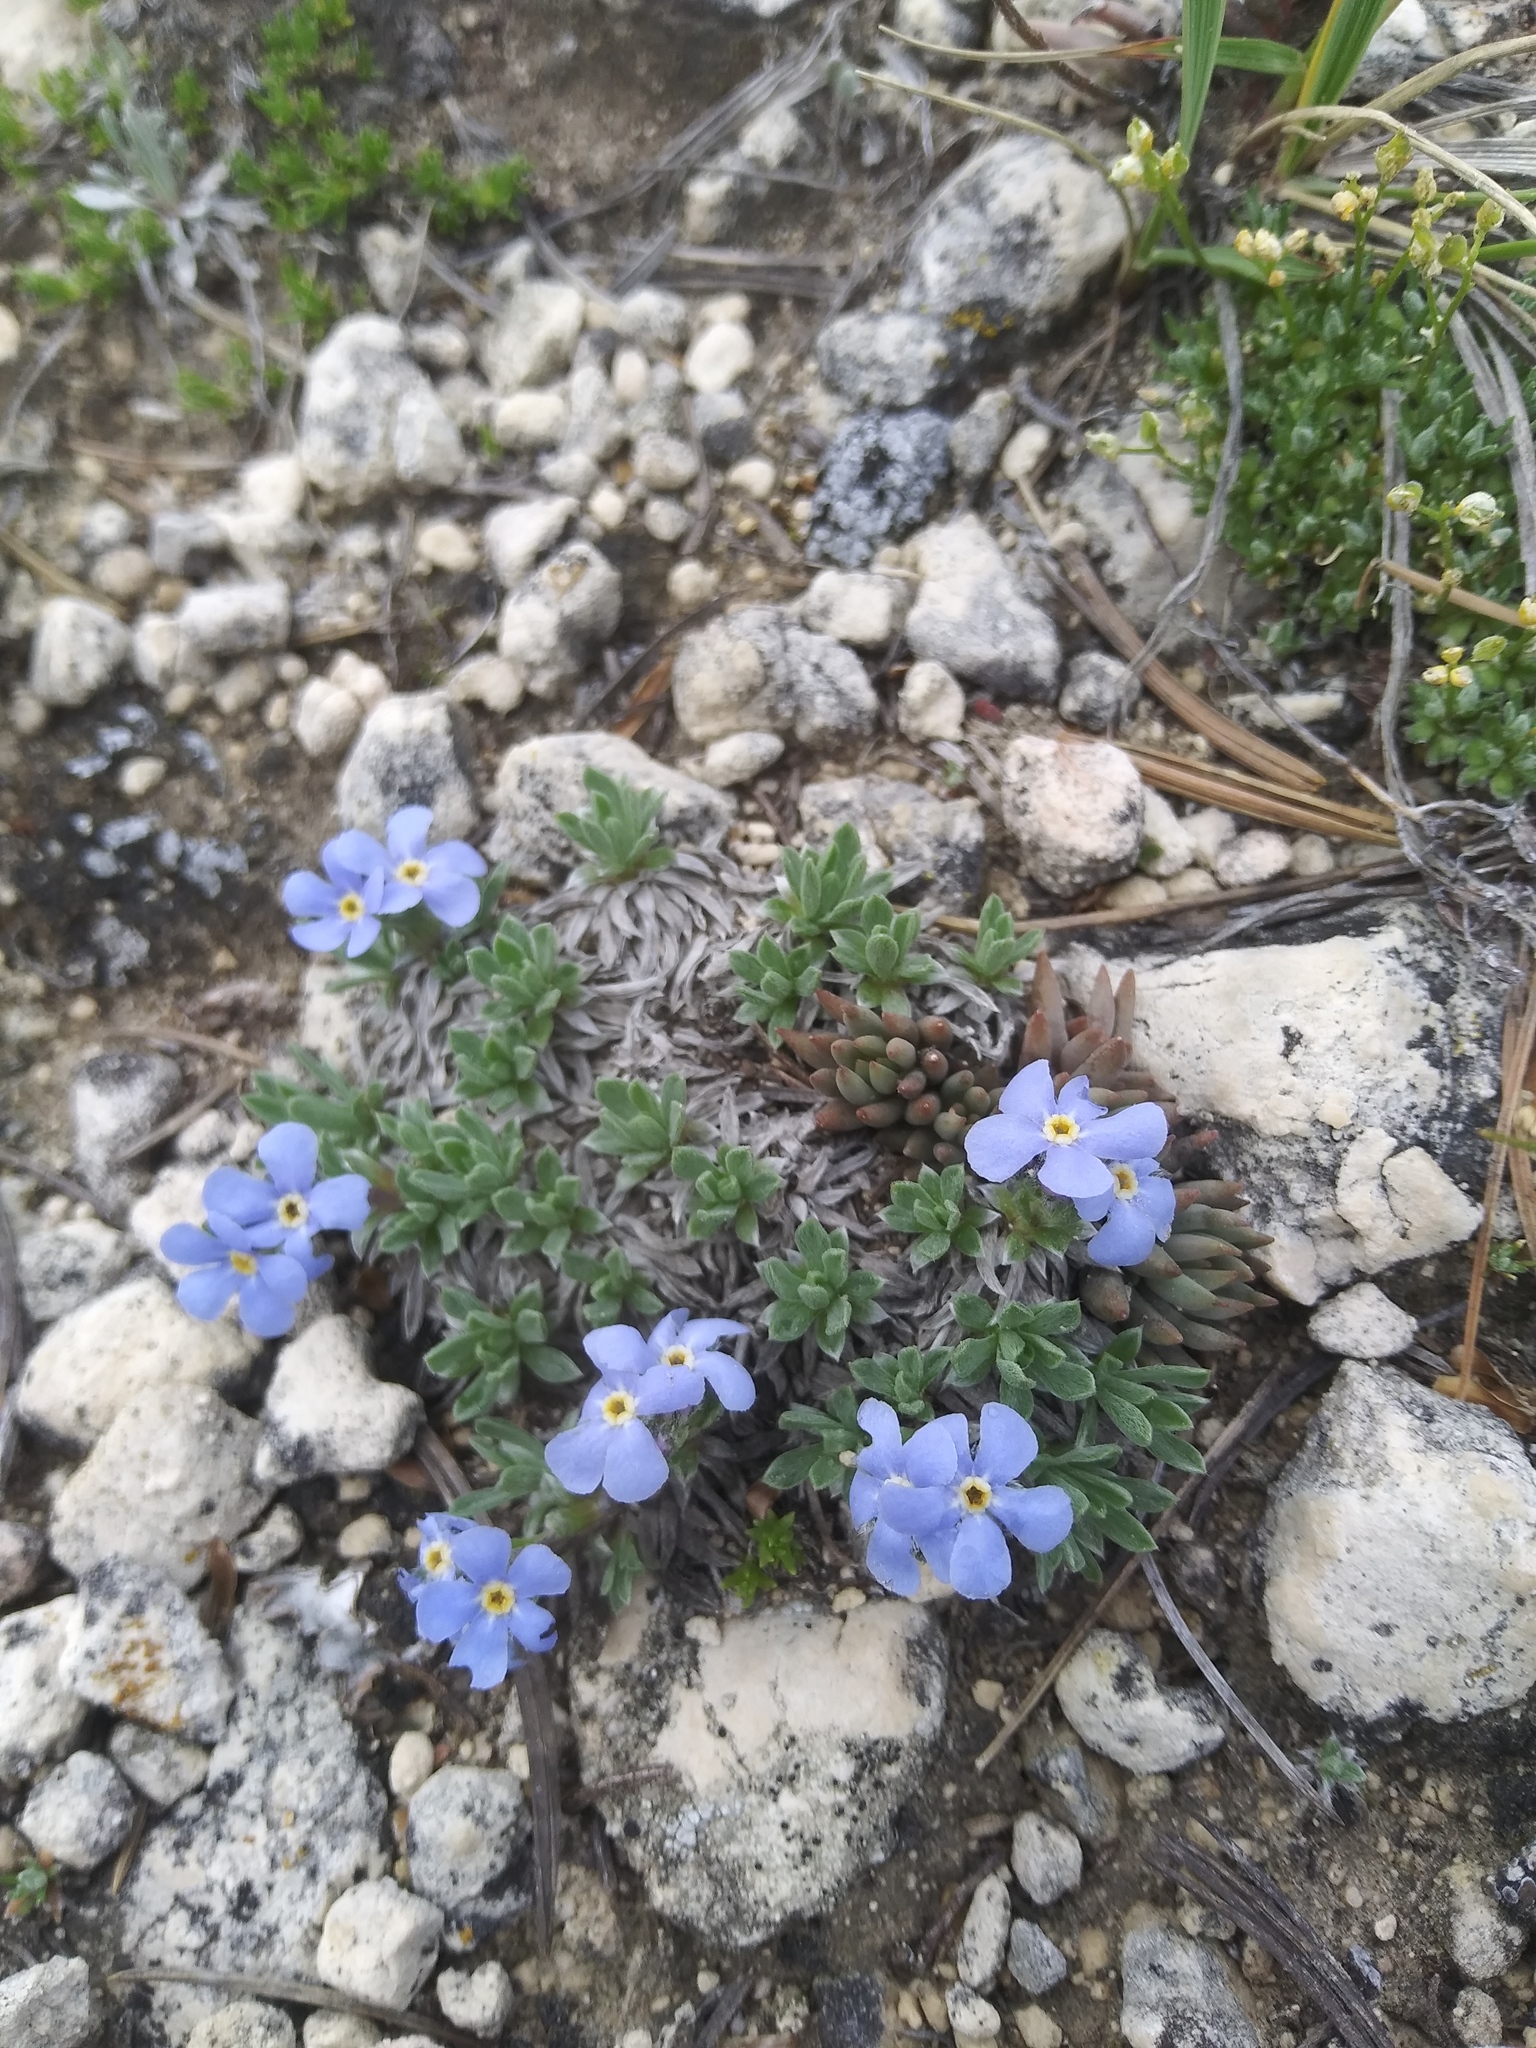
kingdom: Plantae
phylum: Tracheophyta
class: Magnoliopsida
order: Boraginales
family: Boraginaceae
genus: Eritrichium
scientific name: Eritrichium howardii
